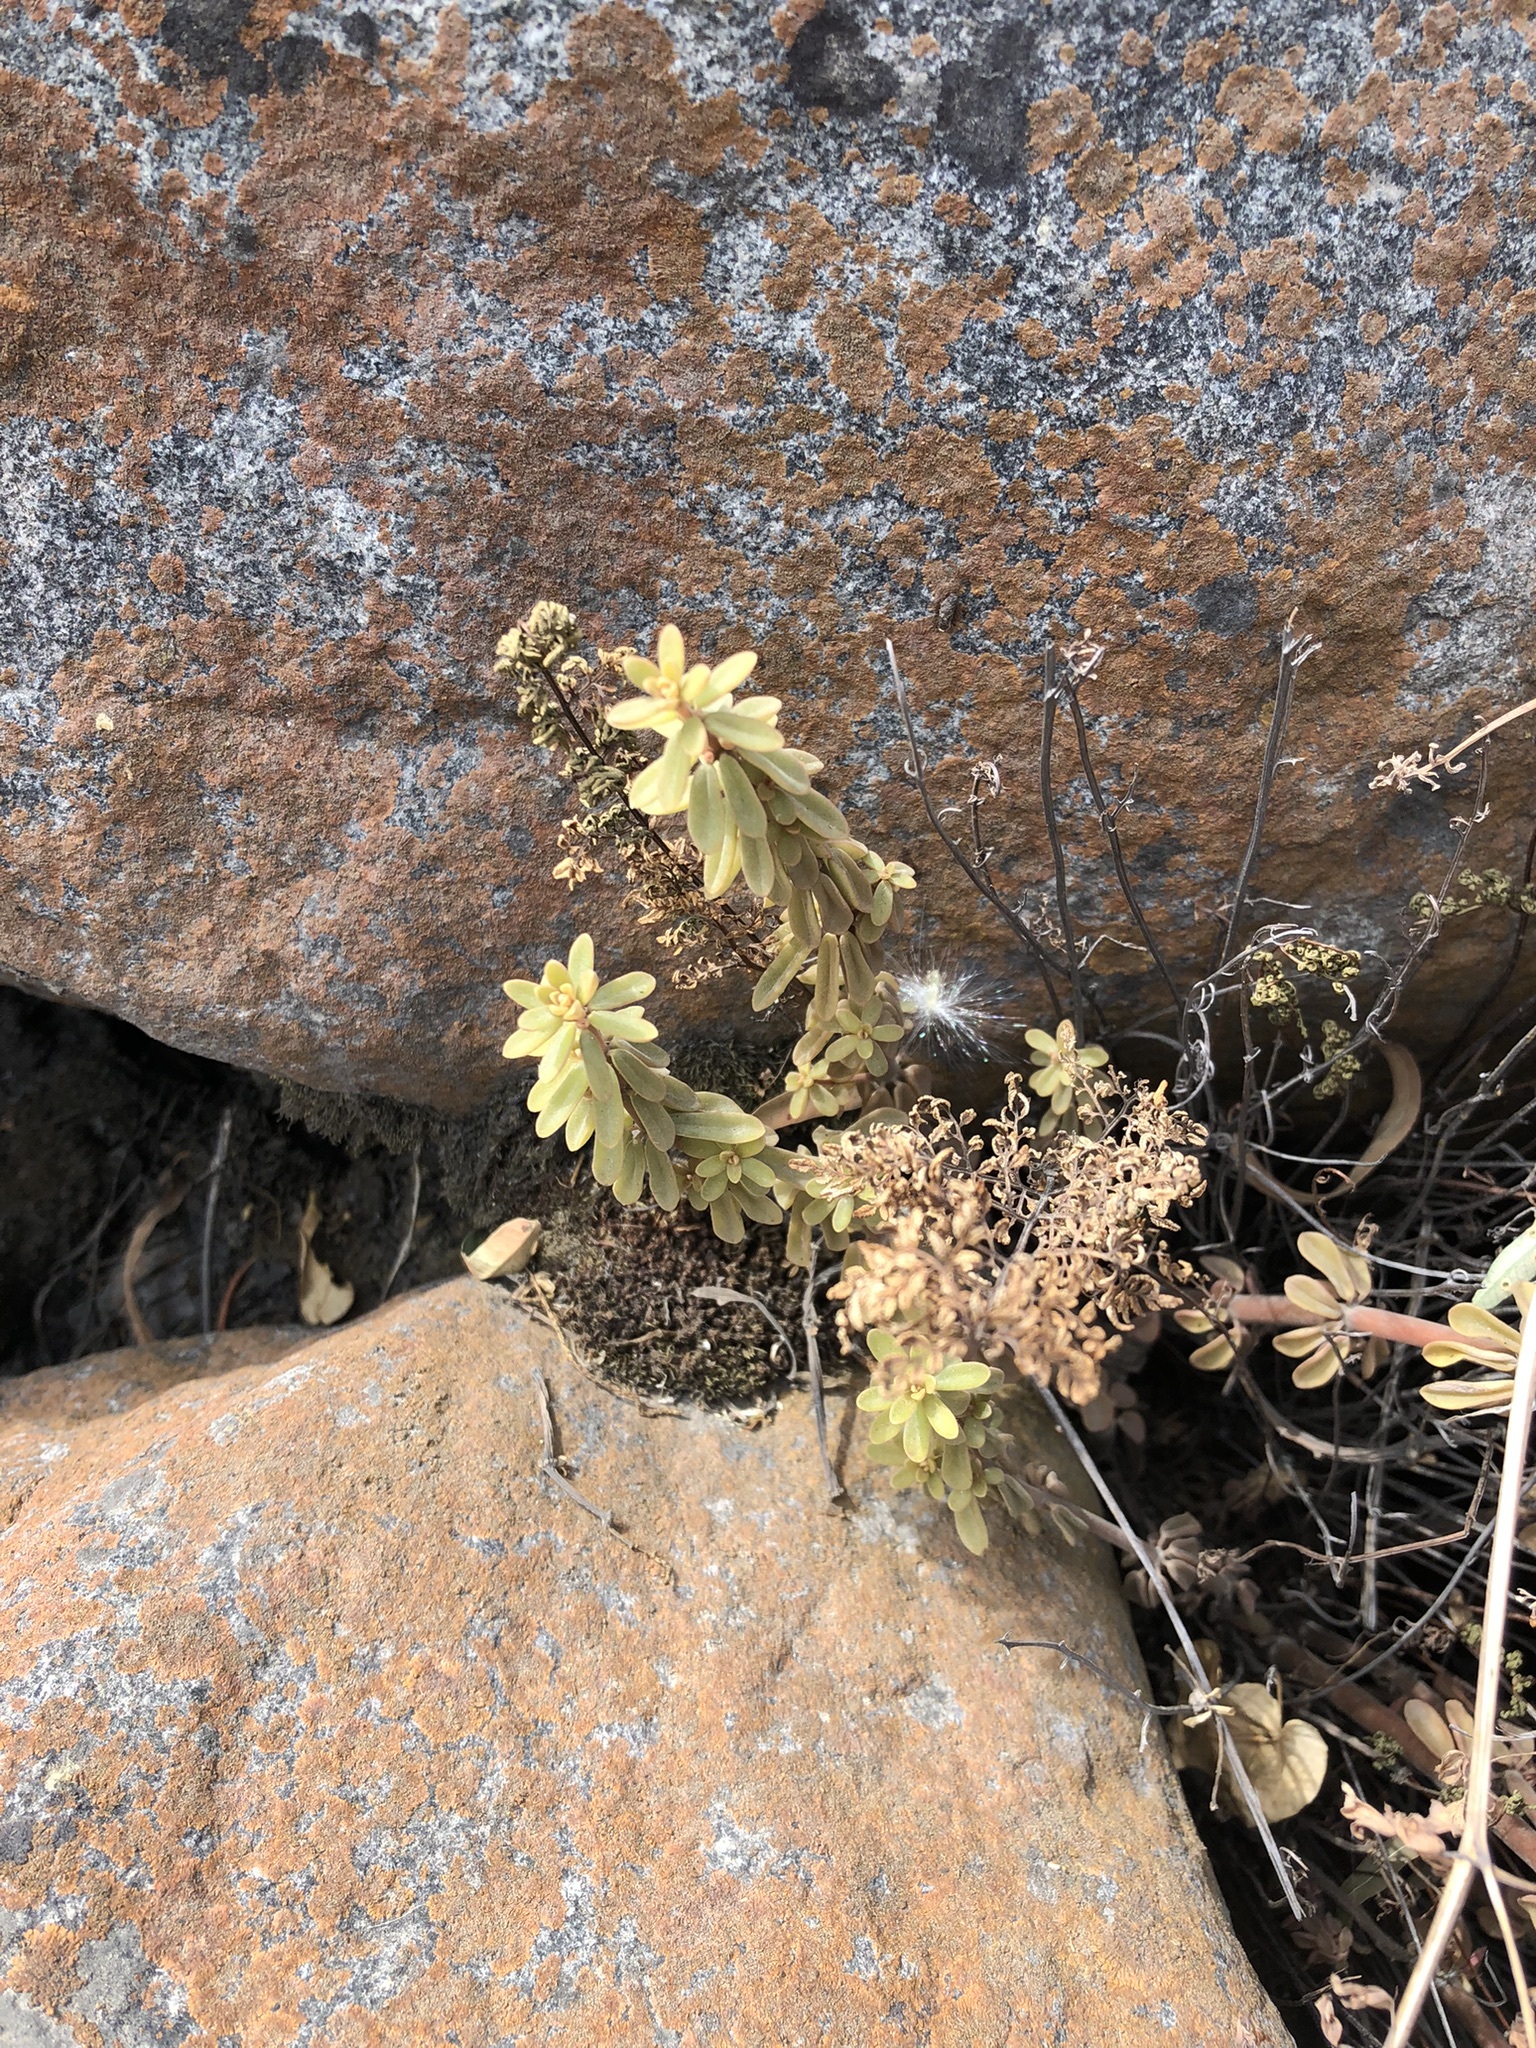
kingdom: Plantae
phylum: Tracheophyta
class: Magnoliopsida
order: Piperales
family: Piperaceae
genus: Peperomia
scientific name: Peperomia galioides
